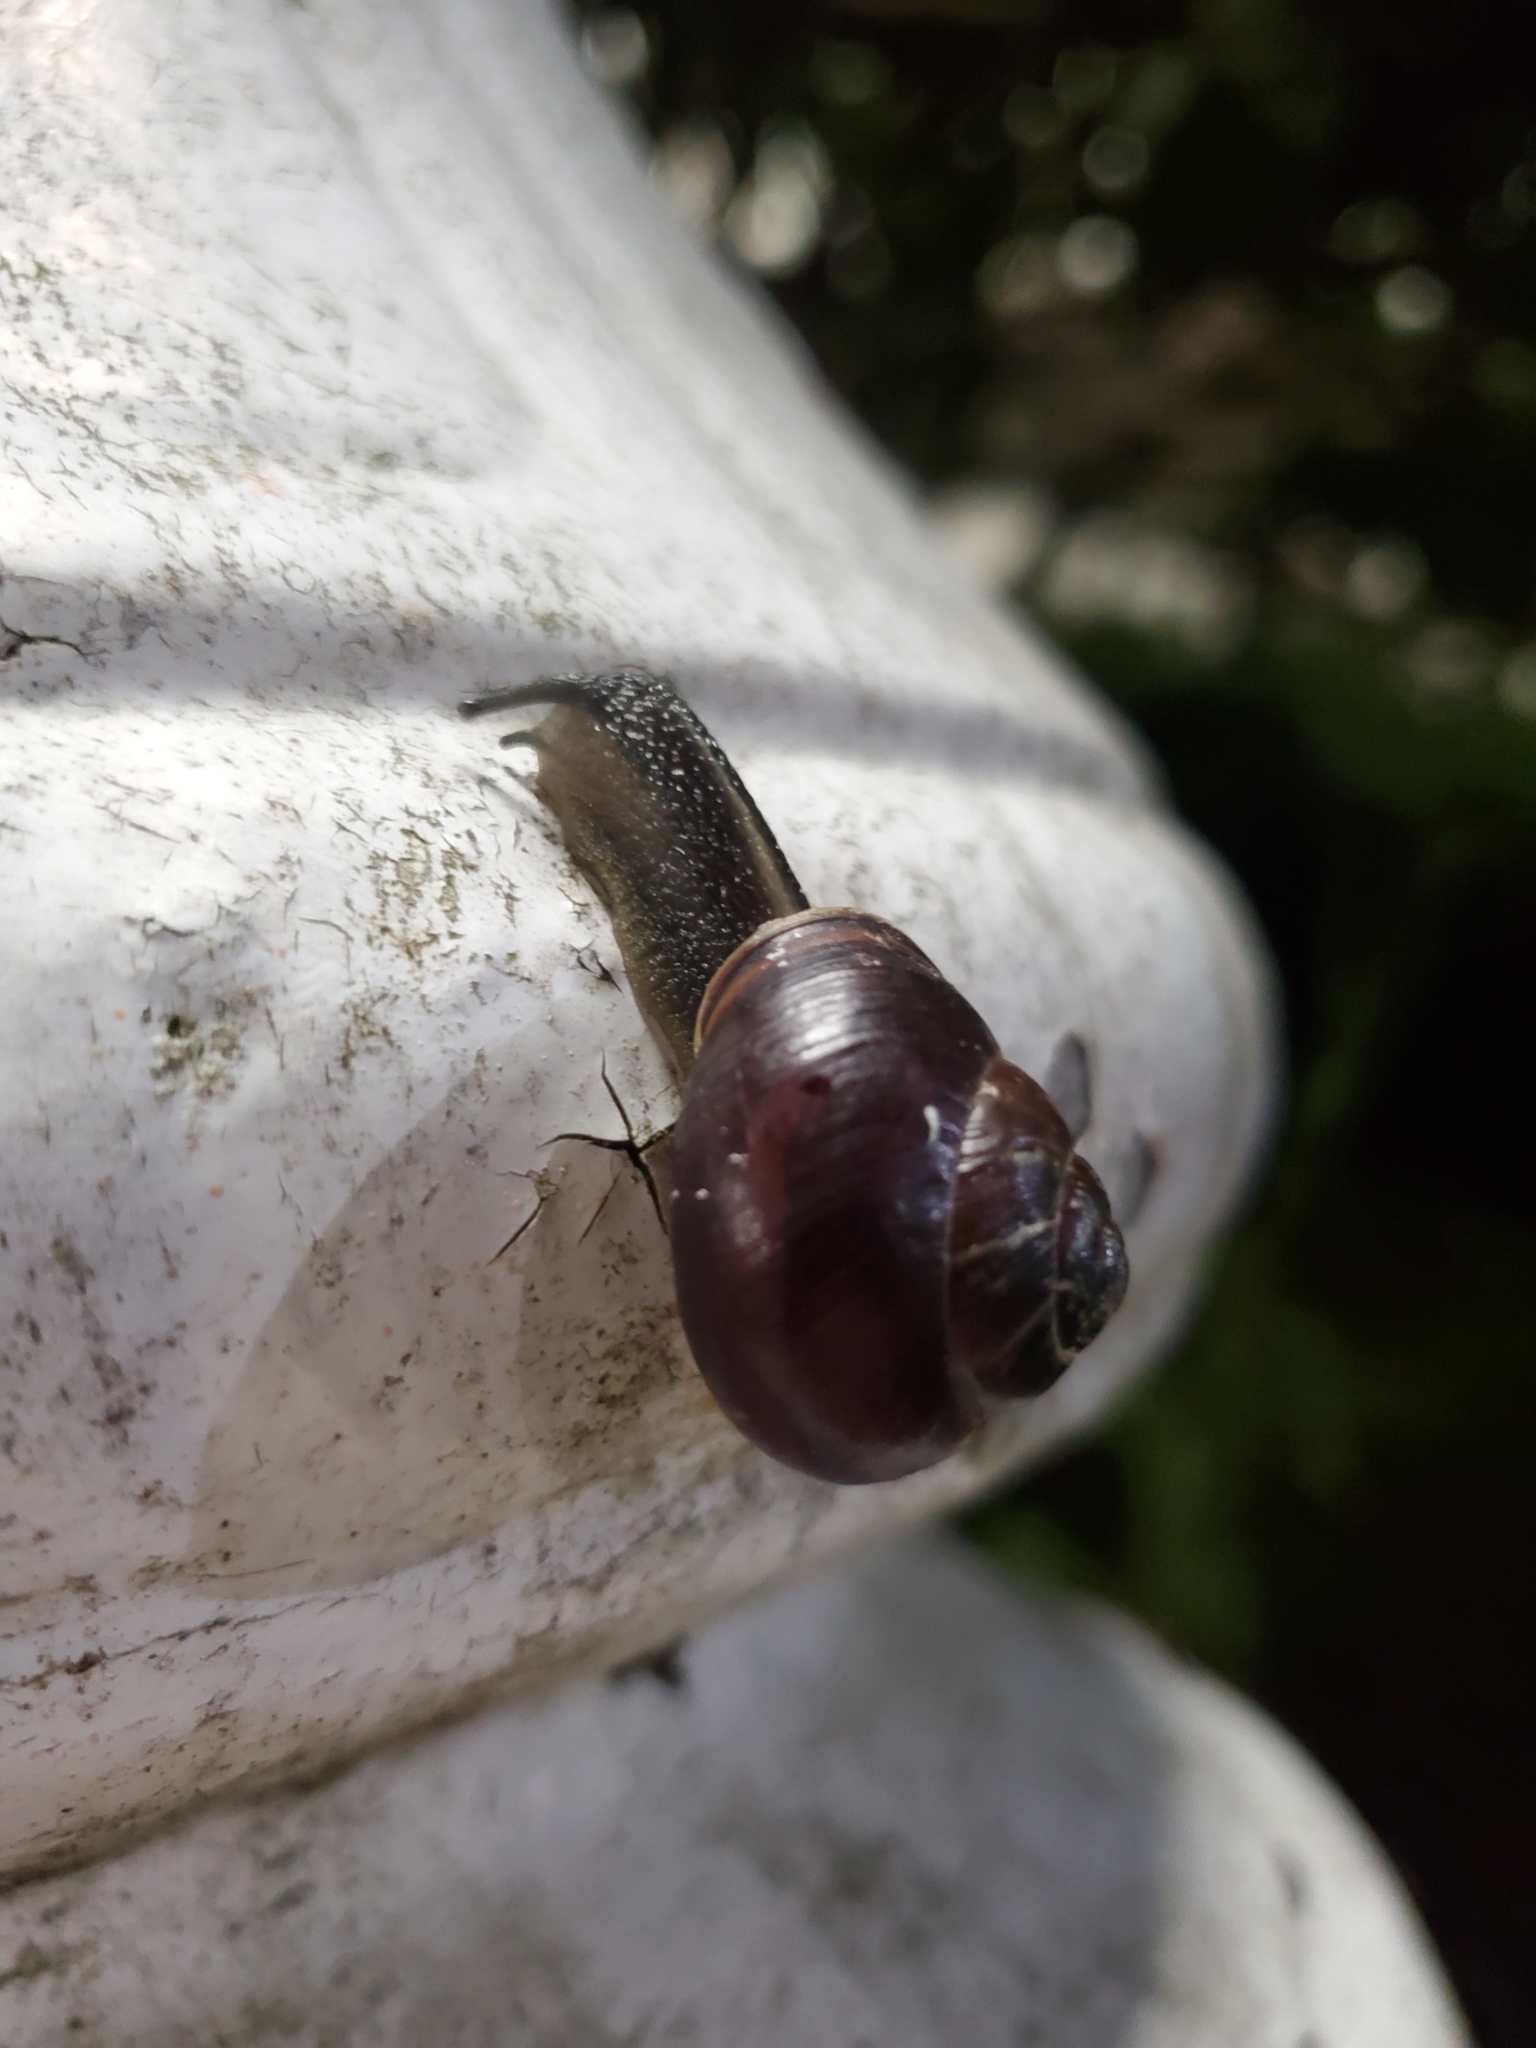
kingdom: Animalia
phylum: Mollusca
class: Gastropoda
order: Stylommatophora
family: Helicidae
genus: Cepaea
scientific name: Cepaea nemoralis
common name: Grovesnail
